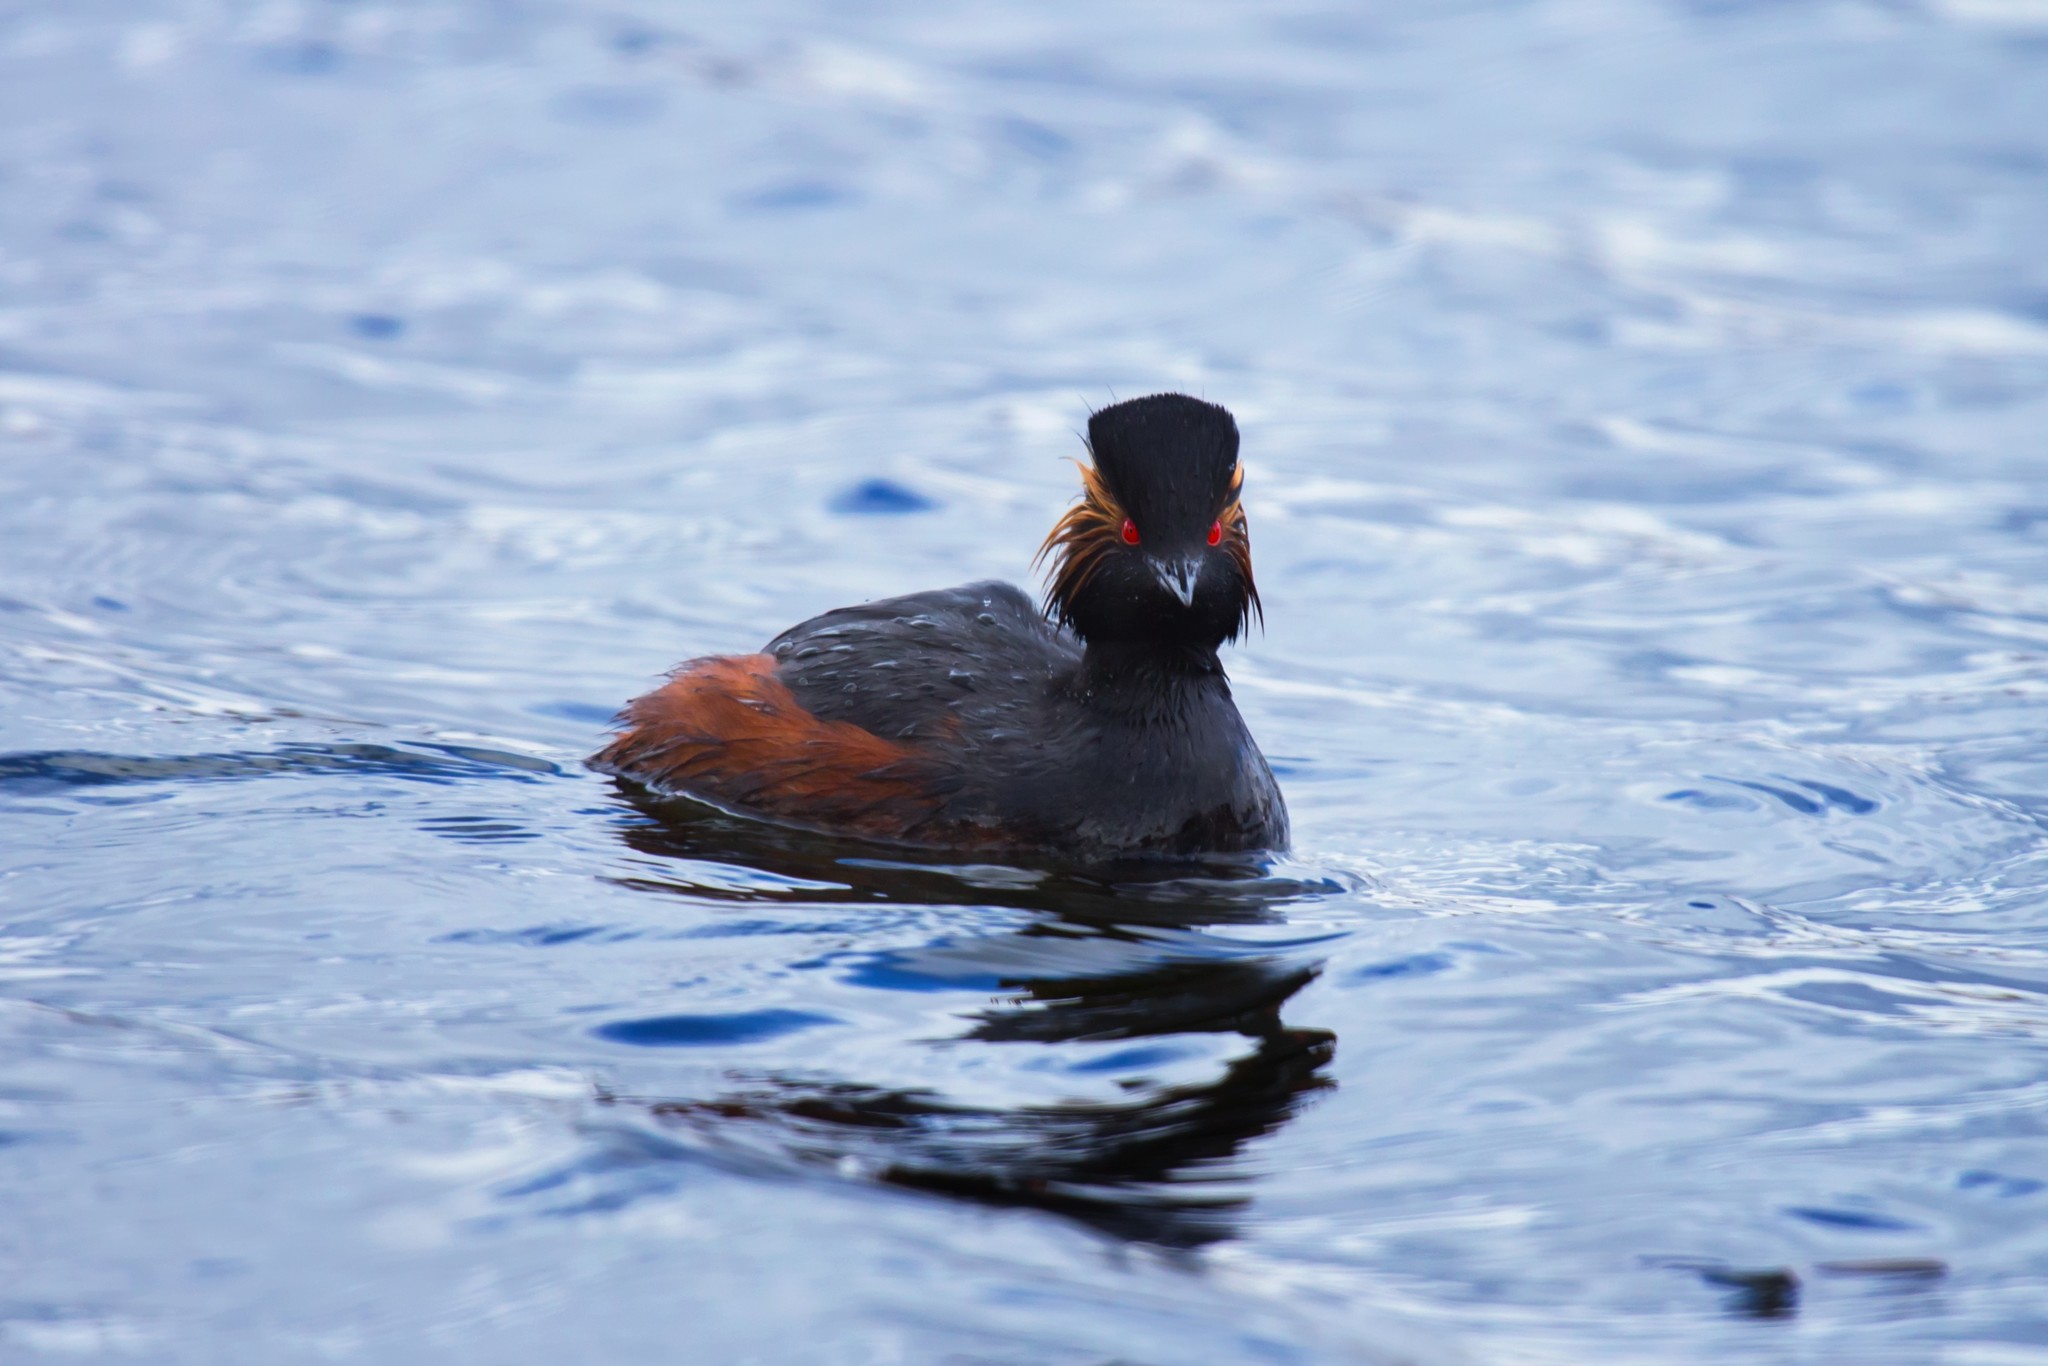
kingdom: Animalia
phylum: Chordata
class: Aves
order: Podicipediformes
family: Podicipedidae
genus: Podiceps
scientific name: Podiceps nigricollis
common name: Black-necked grebe
